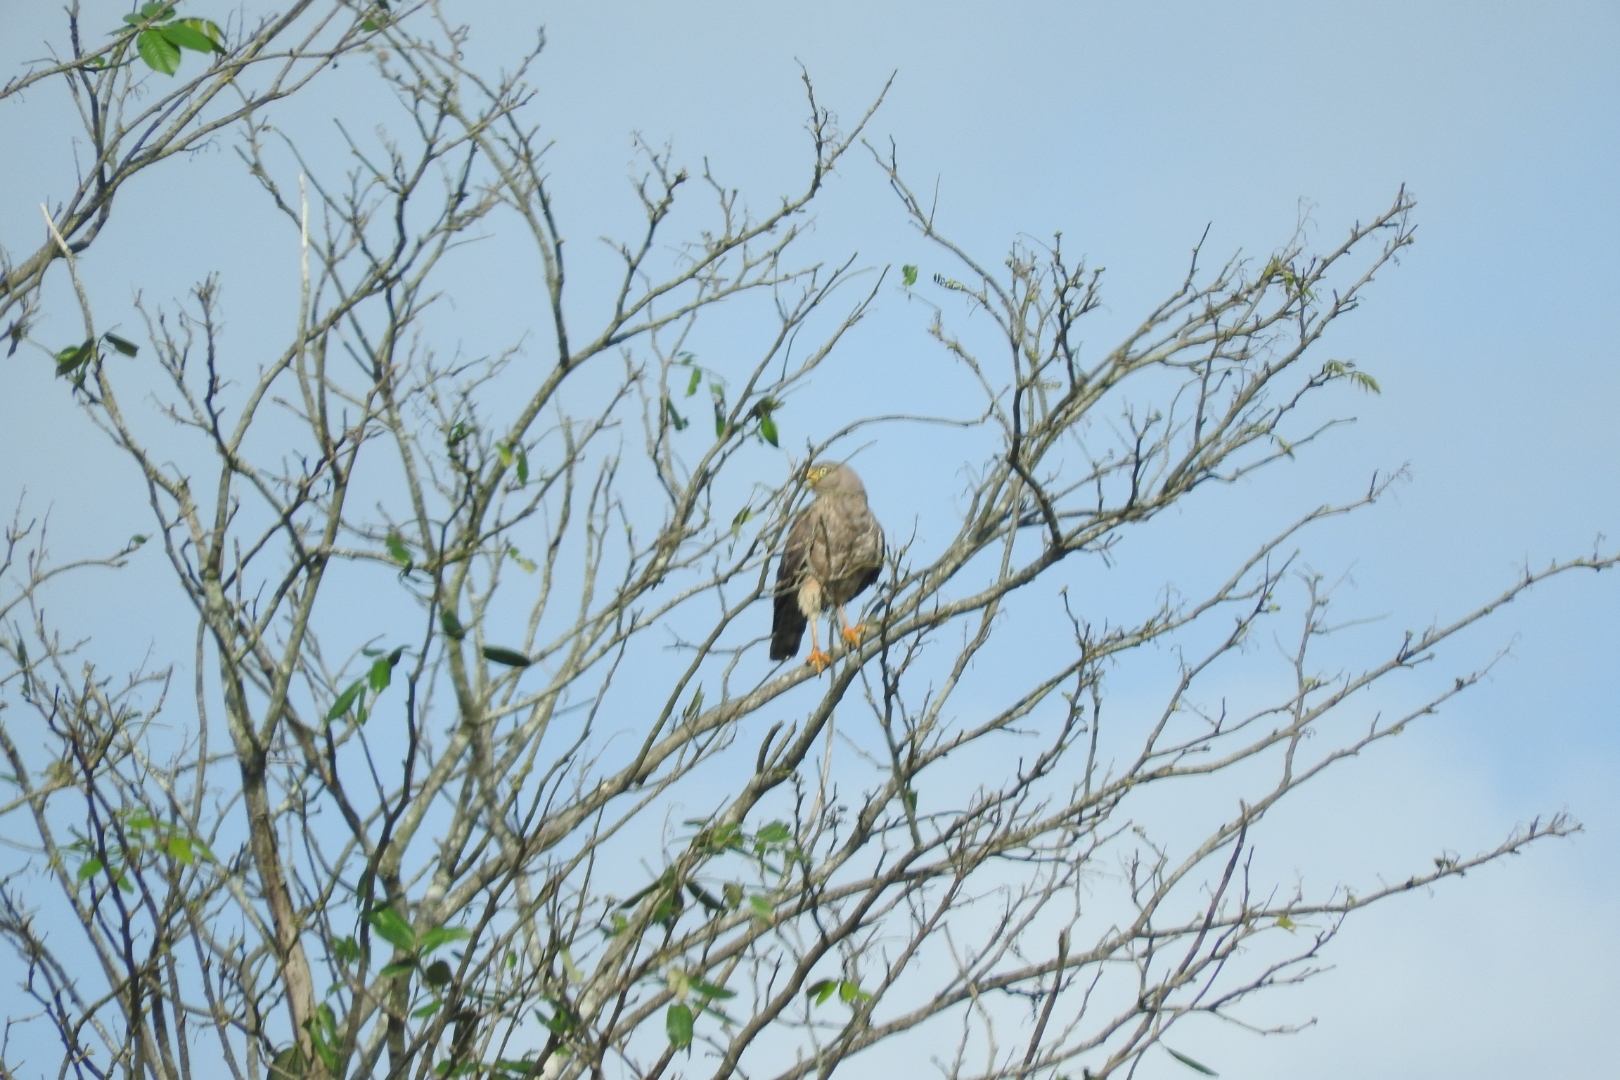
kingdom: Animalia
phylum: Chordata
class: Aves
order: Accipitriformes
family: Accipitridae
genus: Rupornis
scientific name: Rupornis magnirostris
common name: Roadside hawk
